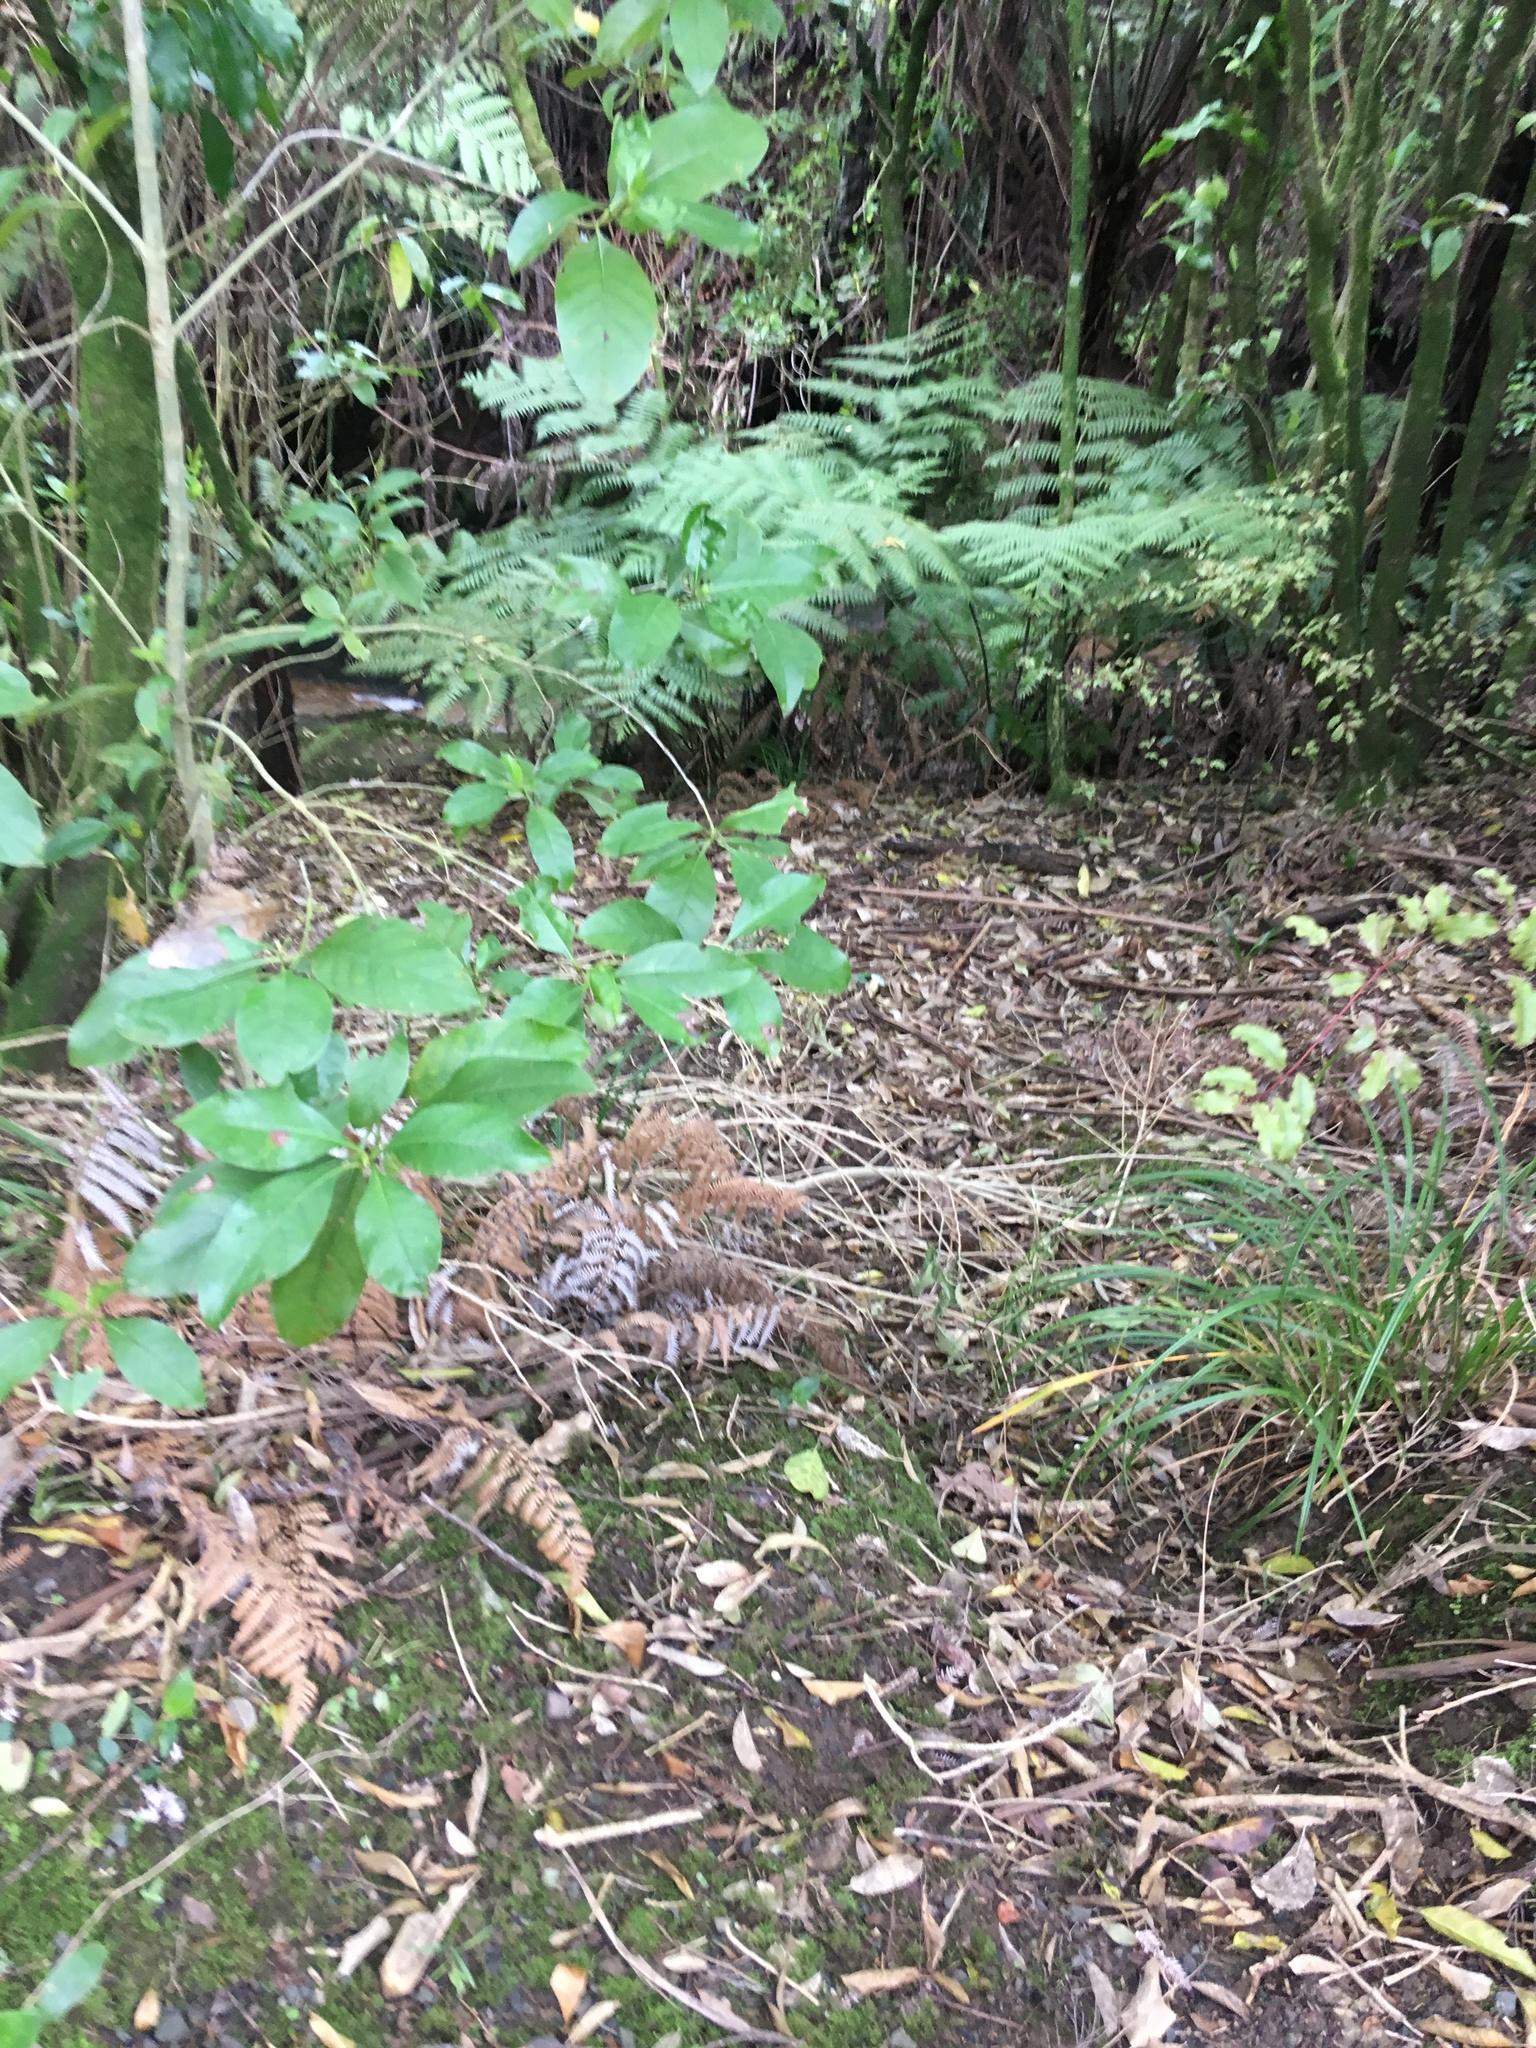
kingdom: Plantae
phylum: Tracheophyta
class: Magnoliopsida
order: Gentianales
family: Rubiaceae
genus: Coprosma
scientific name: Coprosma autumnalis
